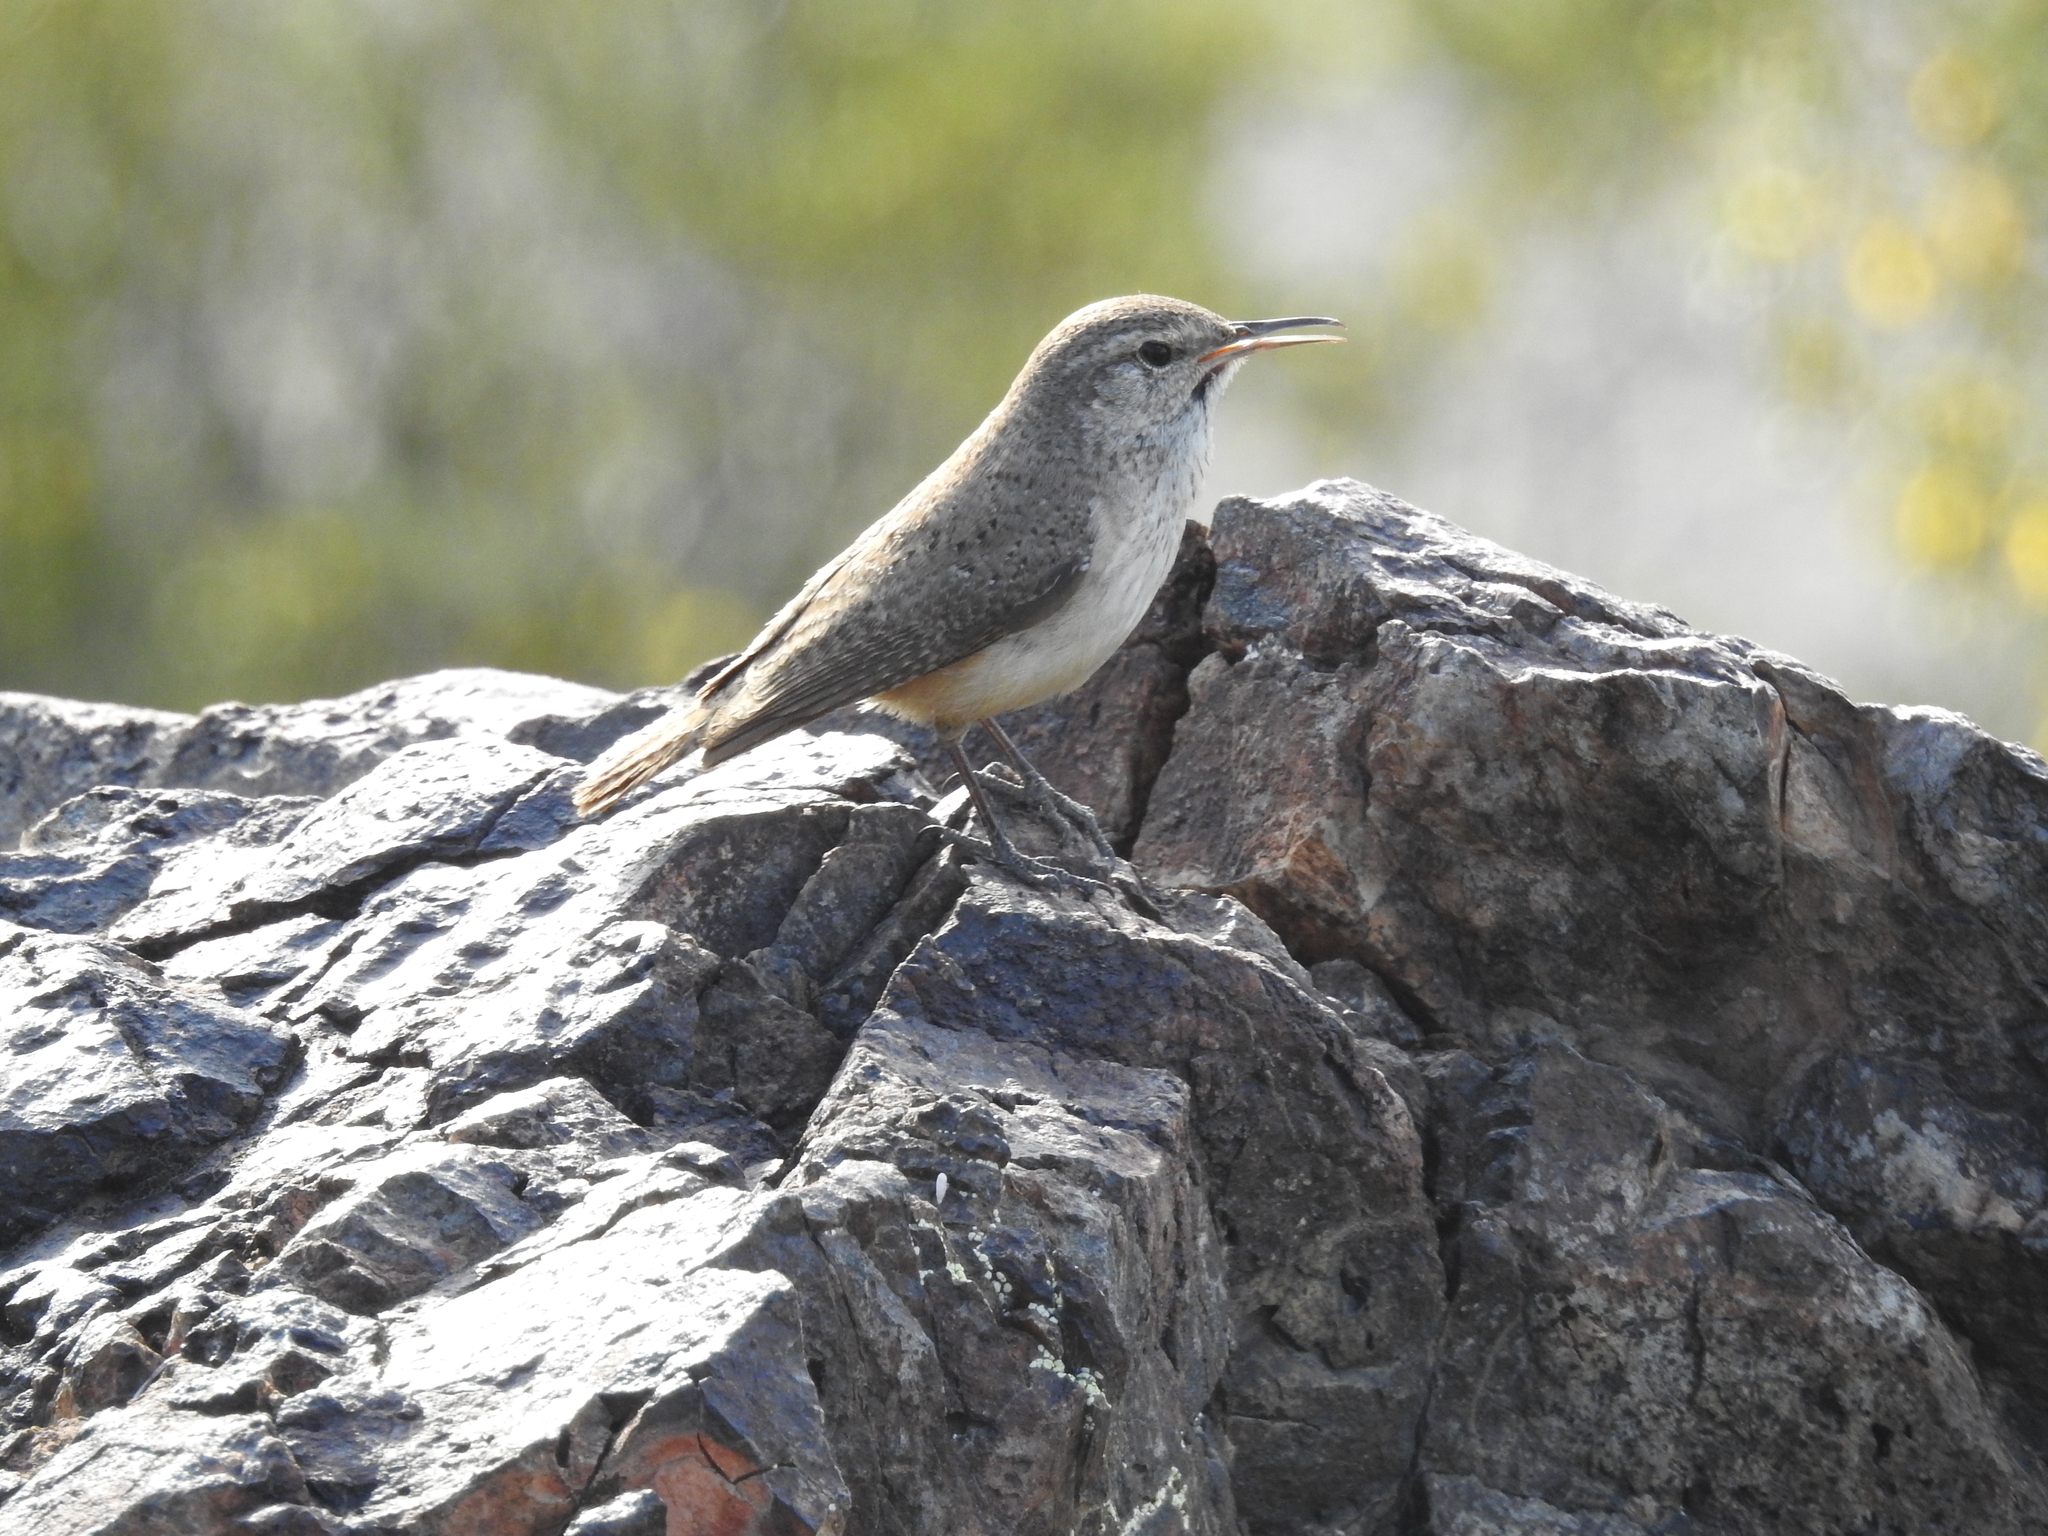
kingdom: Animalia
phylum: Chordata
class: Aves
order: Passeriformes
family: Troglodytidae
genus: Salpinctes
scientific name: Salpinctes obsoletus
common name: Rock wren
